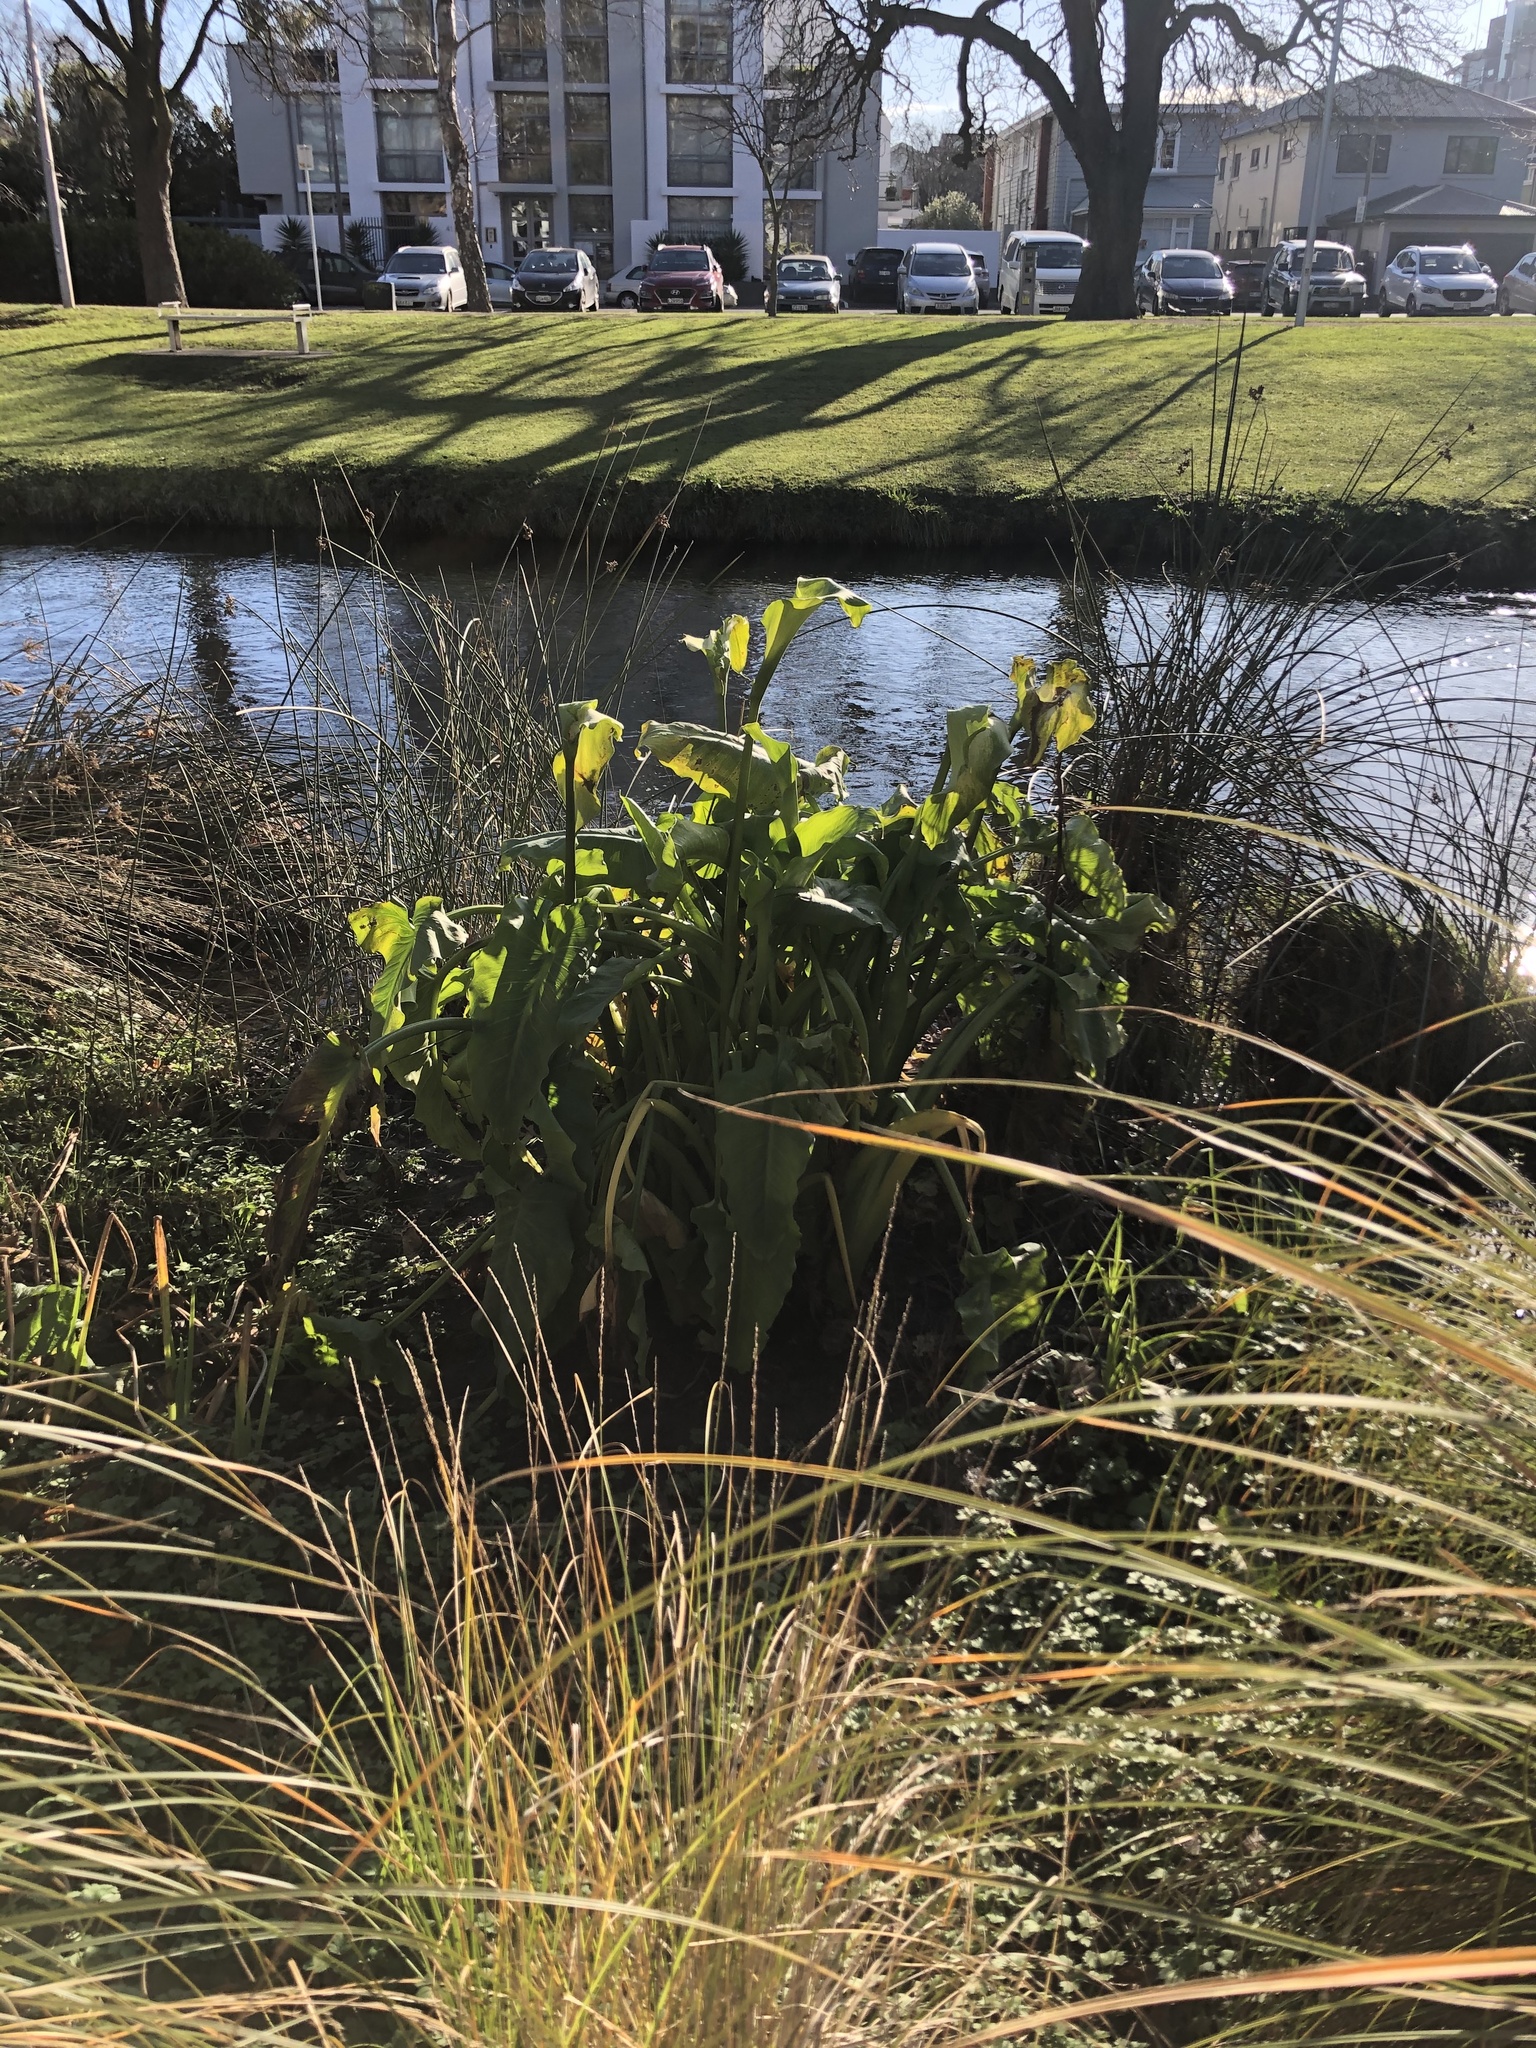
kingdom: Plantae
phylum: Tracheophyta
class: Liliopsida
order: Alismatales
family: Araceae
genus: Zantedeschia
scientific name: Zantedeschia aethiopica
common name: Altar-lily
